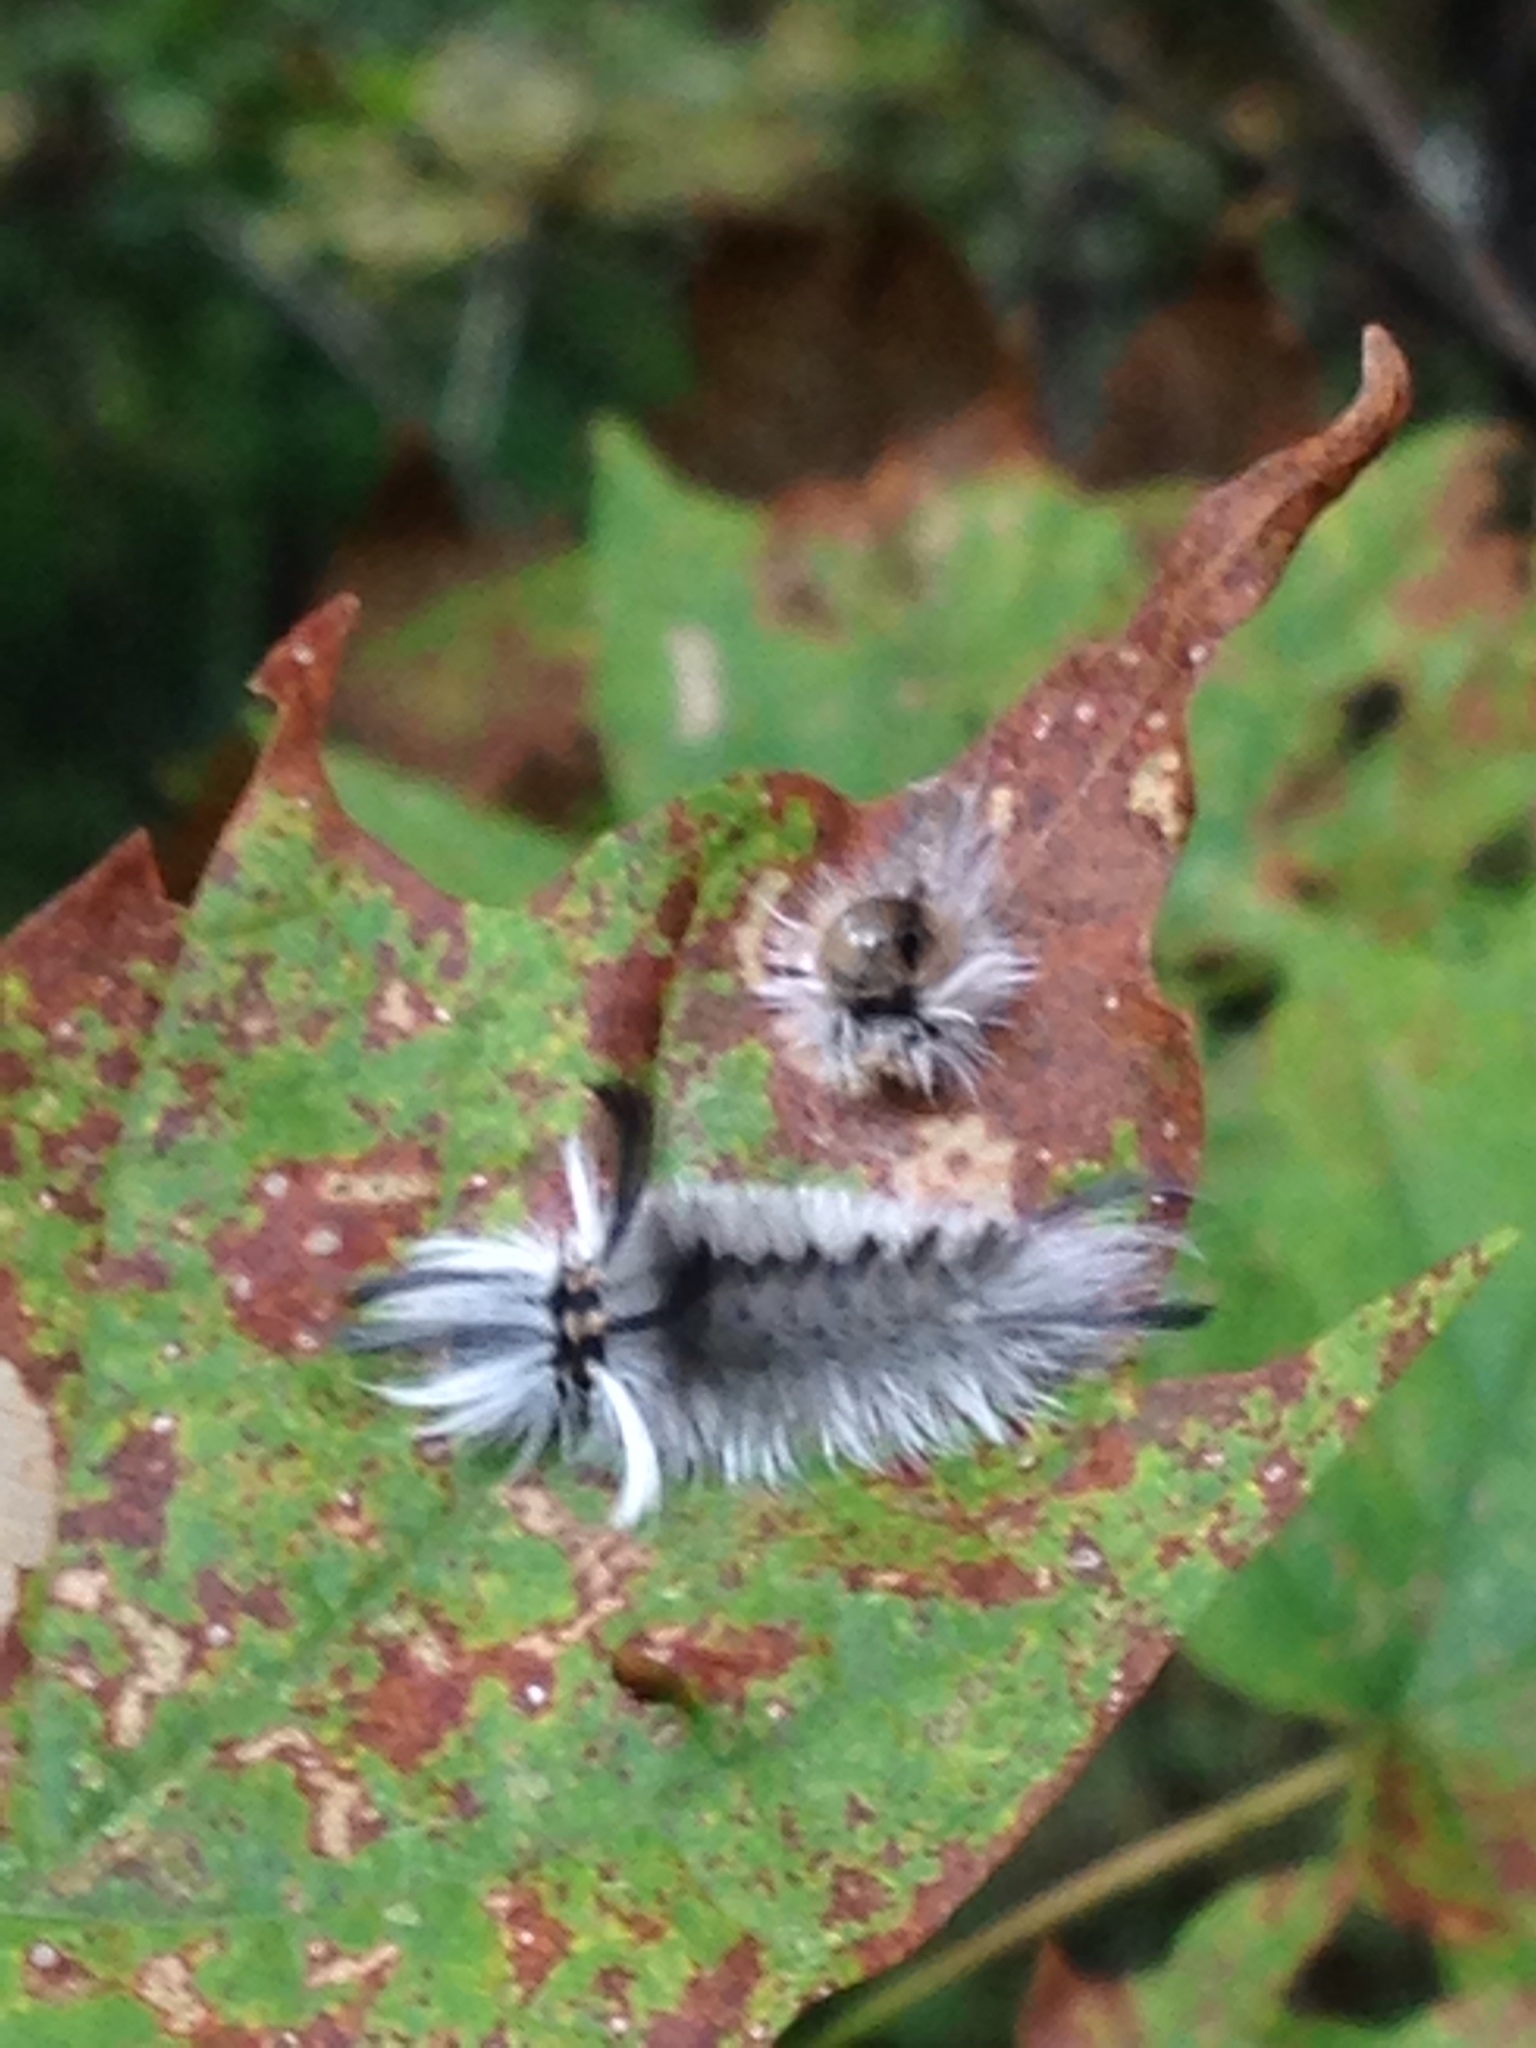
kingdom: Animalia
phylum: Arthropoda
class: Insecta
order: Lepidoptera
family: Erebidae
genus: Halysidota
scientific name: Halysidota tessellaris
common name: Banded tussock moth
